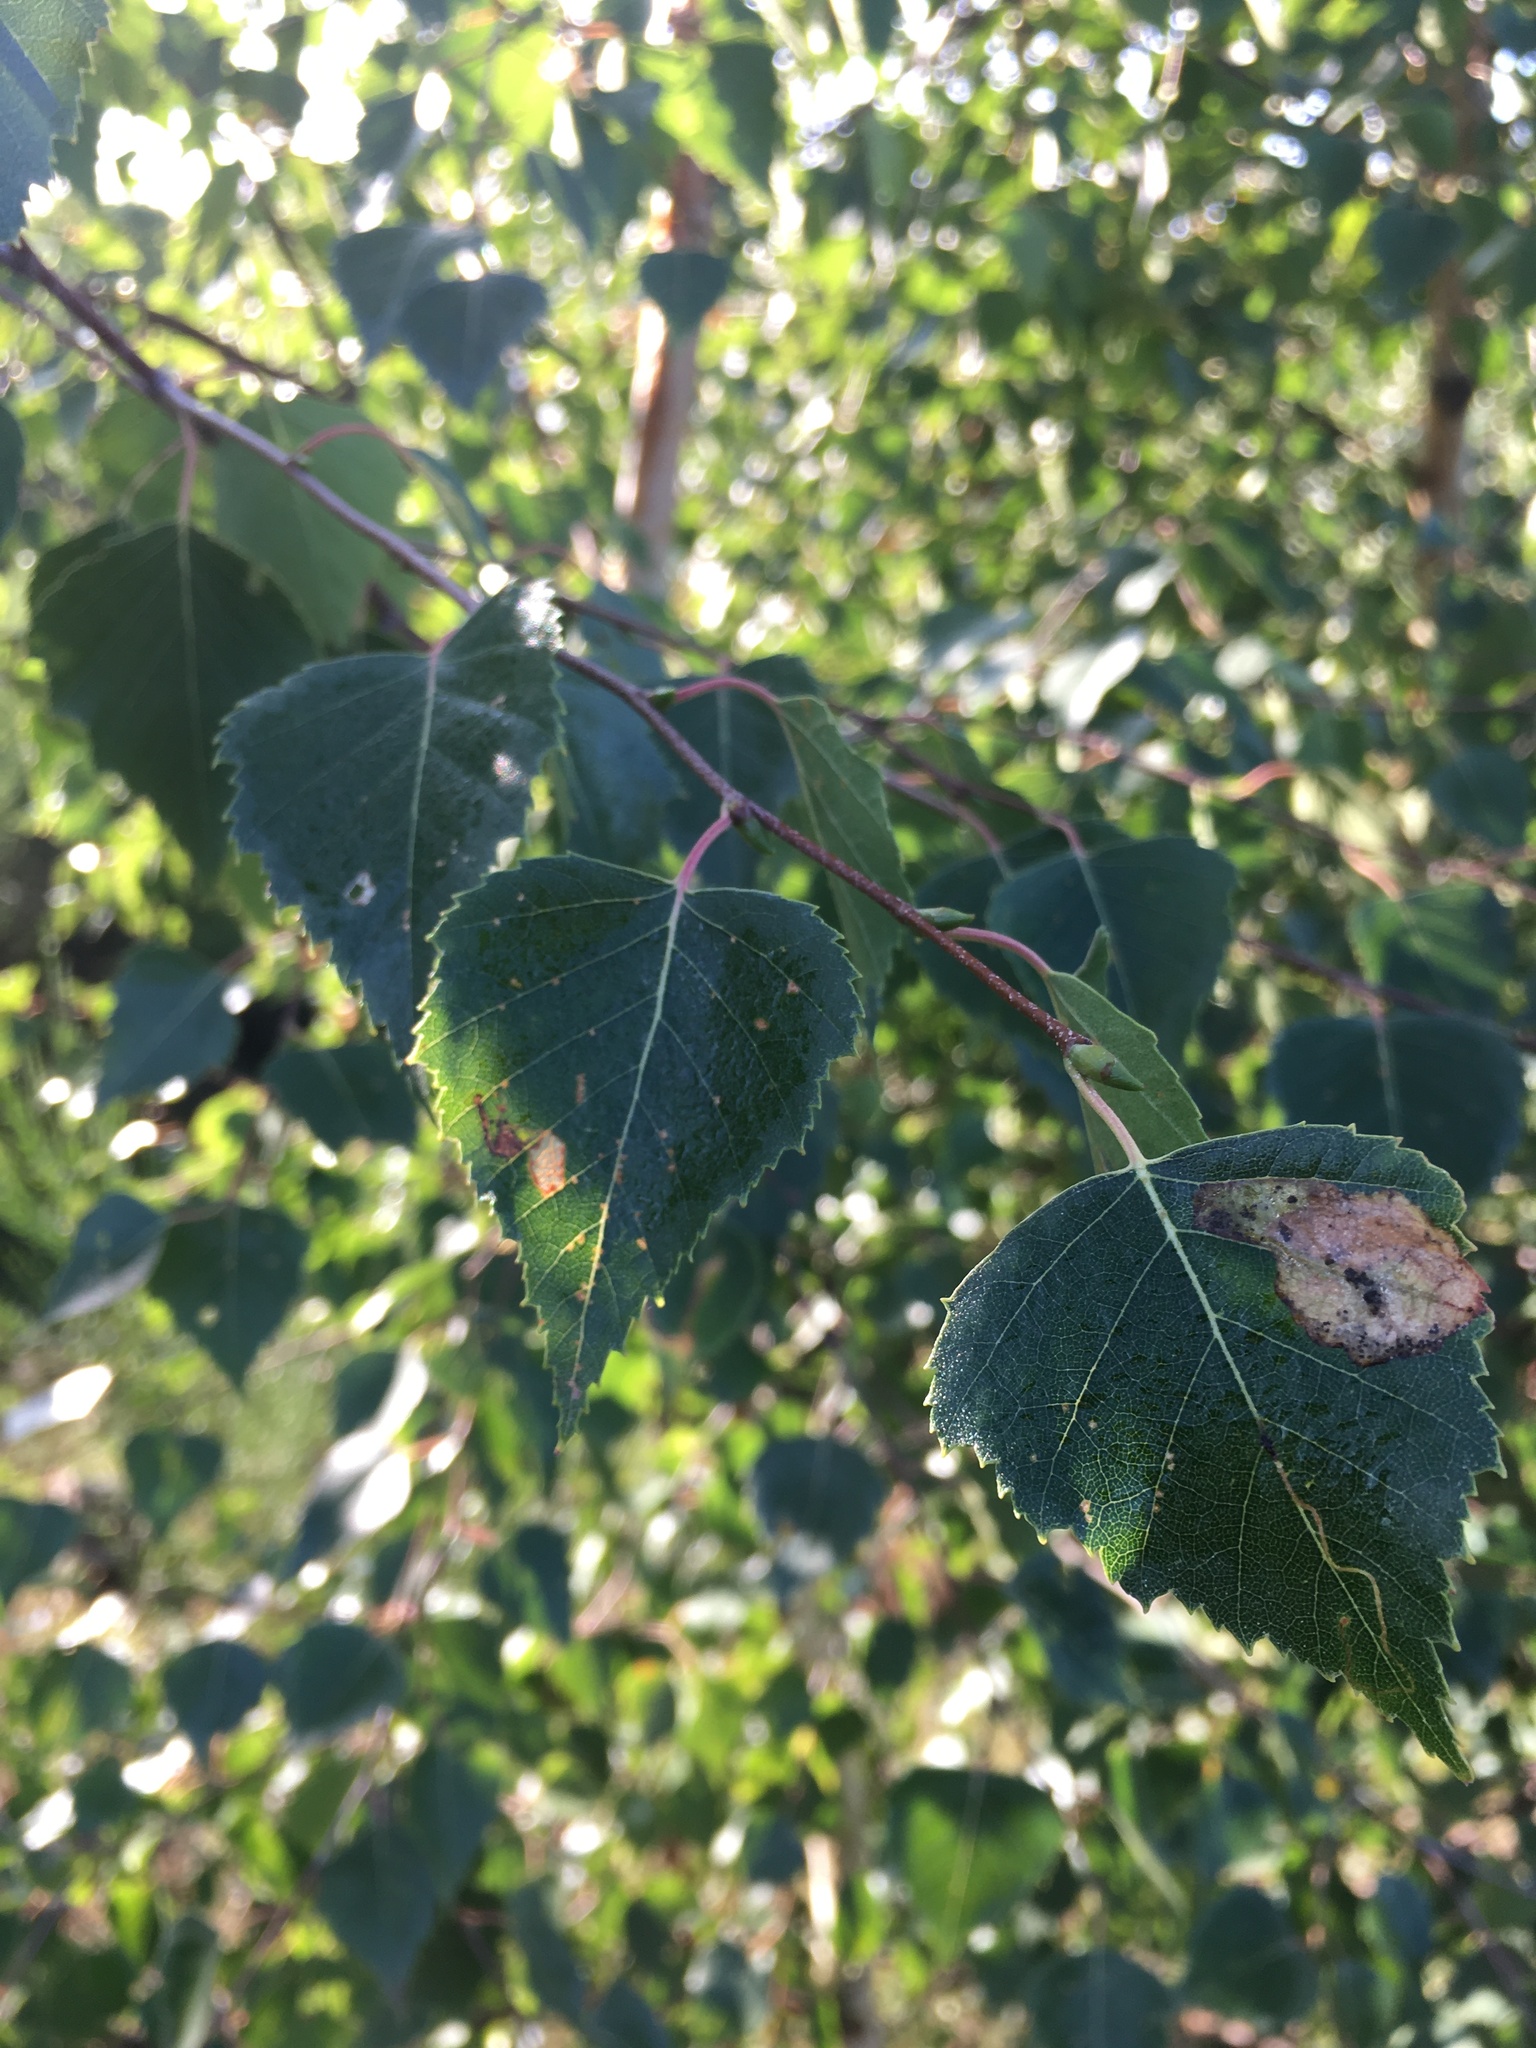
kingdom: Plantae
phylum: Tracheophyta
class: Magnoliopsida
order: Fagales
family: Betulaceae
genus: Betula
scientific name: Betula pendula
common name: Silver birch
